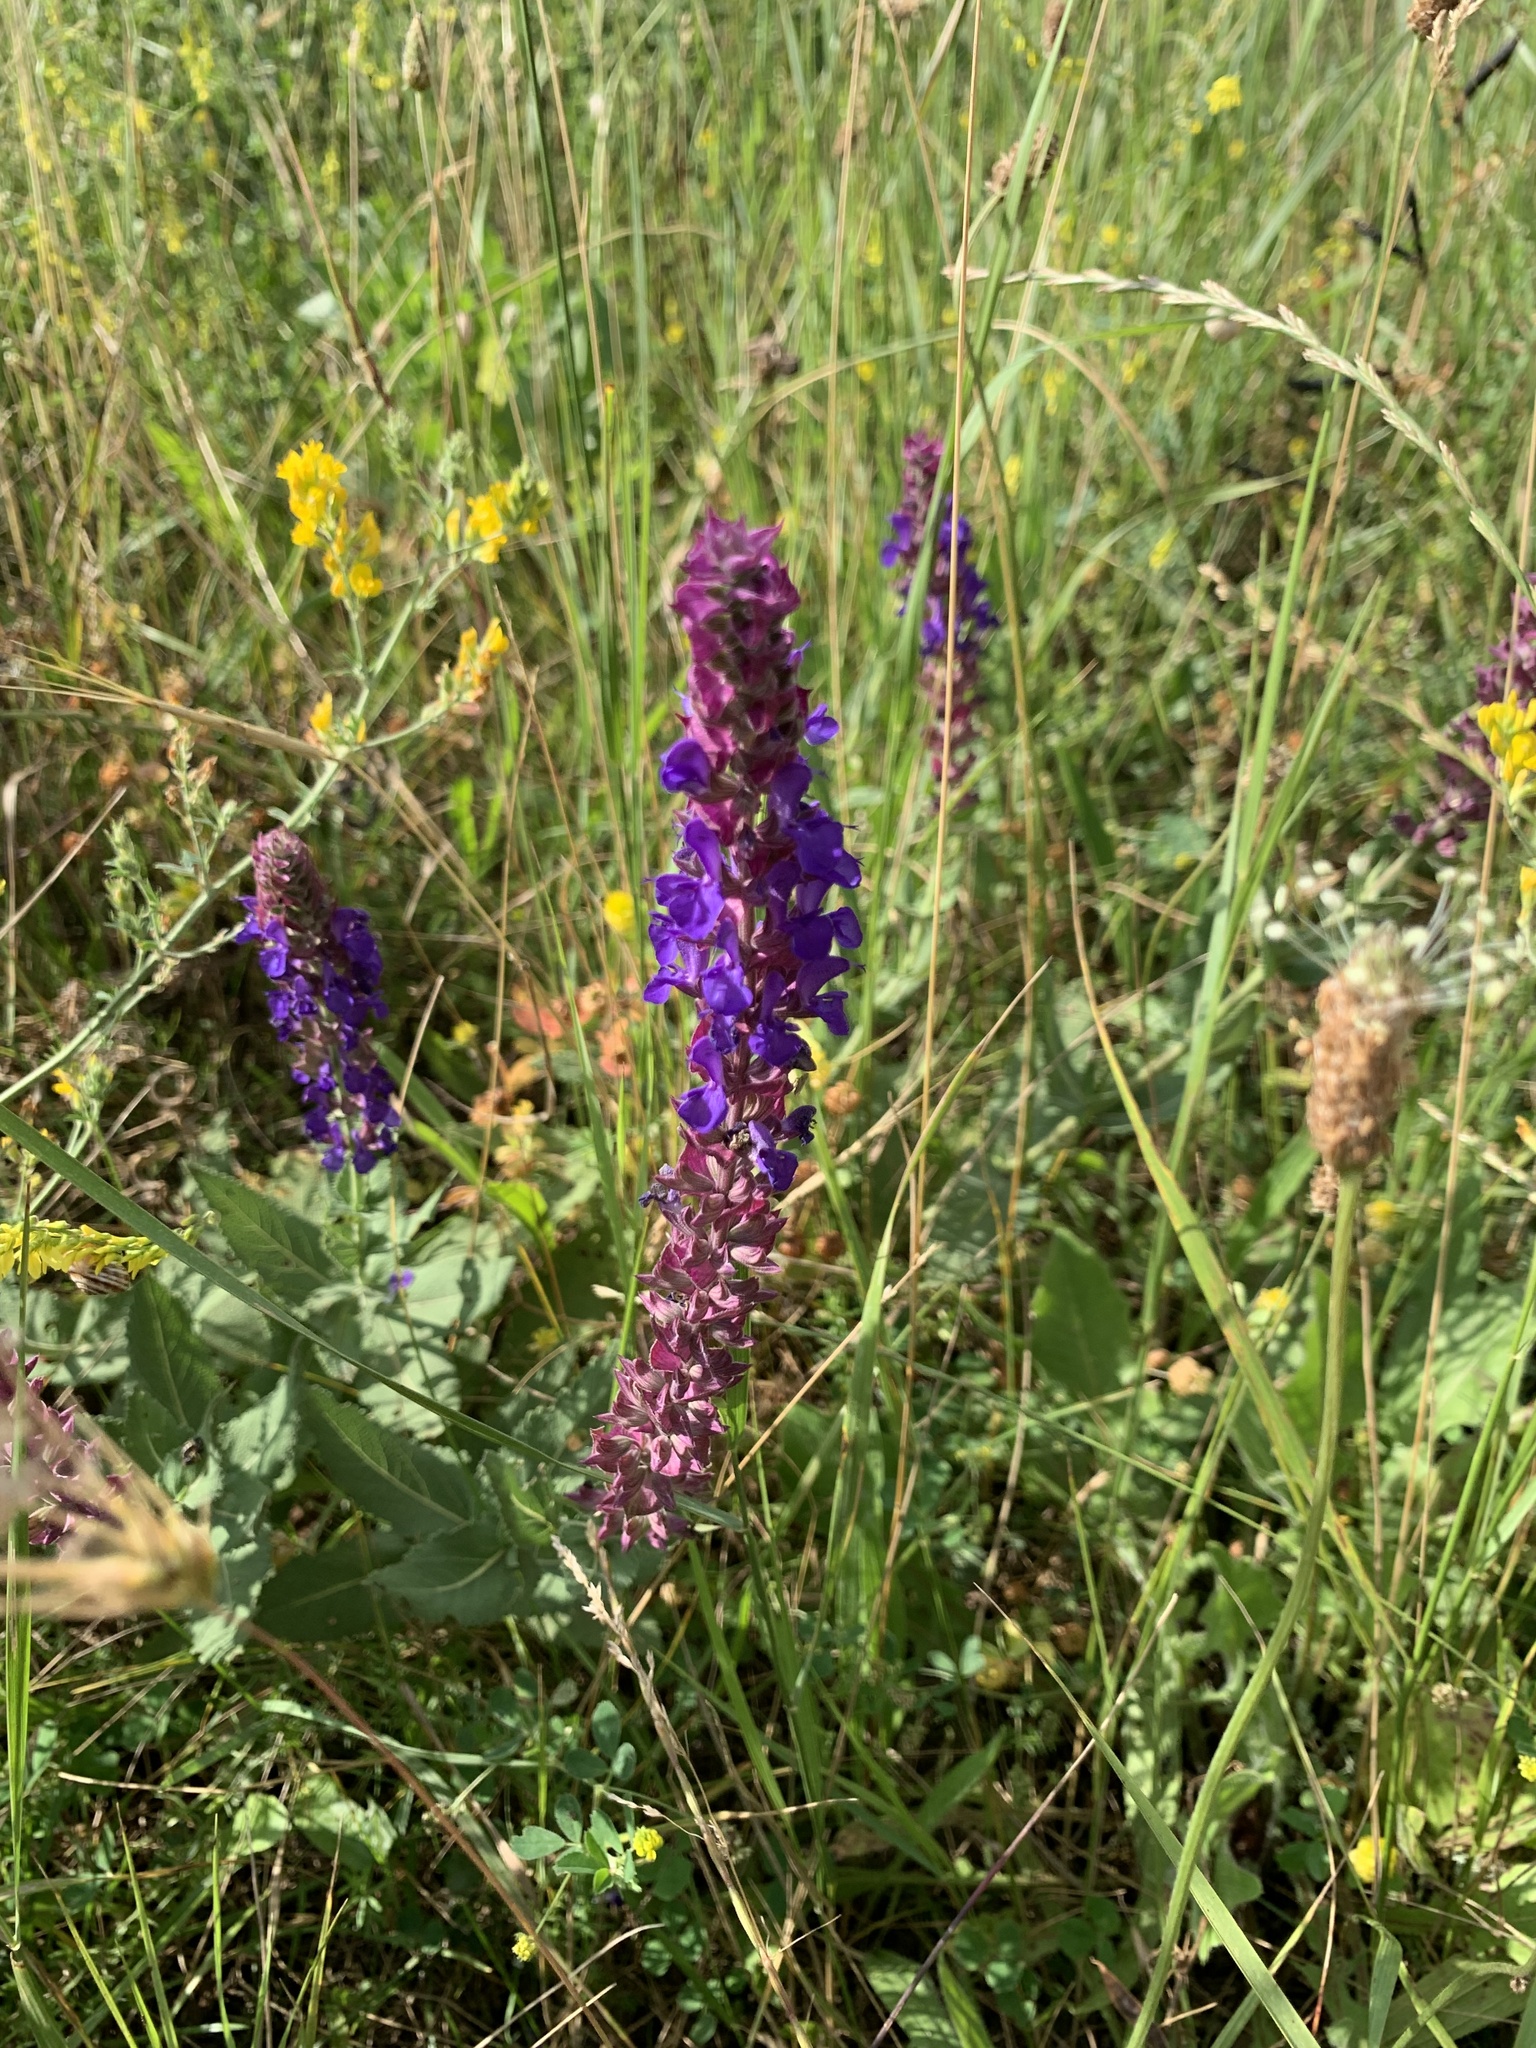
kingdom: Plantae
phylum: Tracheophyta
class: Magnoliopsida
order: Lamiales
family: Lamiaceae
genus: Salvia
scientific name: Salvia nemorosa
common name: Balkan clary
